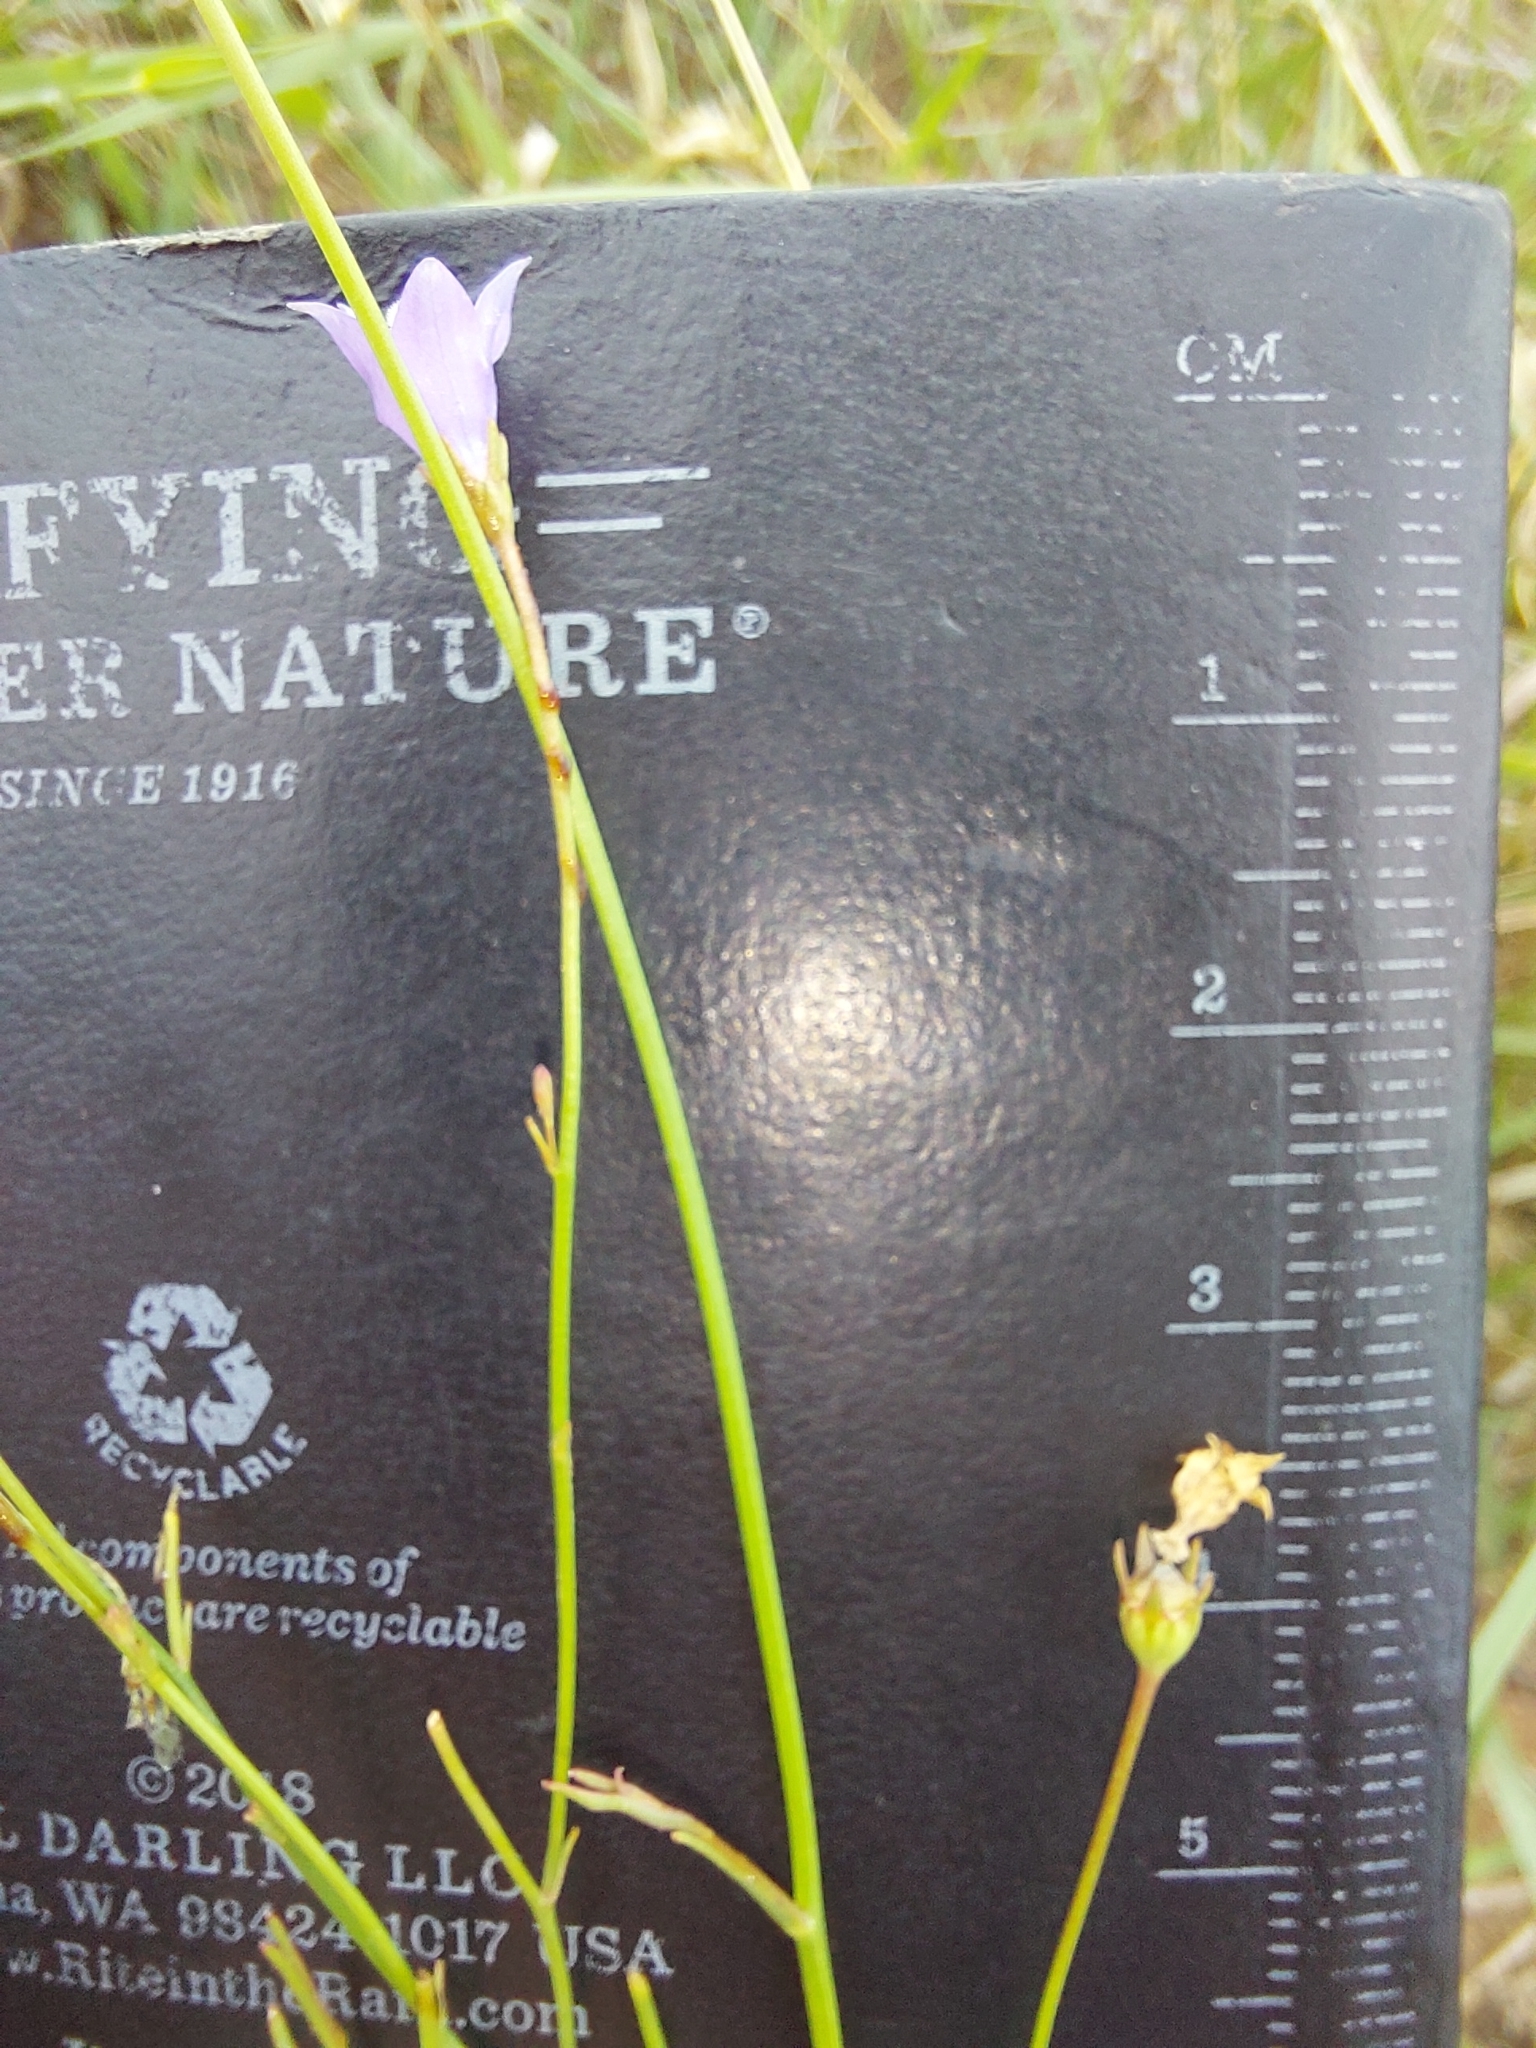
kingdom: Plantae
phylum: Tracheophyta
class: Magnoliopsida
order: Asterales
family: Campanulaceae
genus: Wahlenbergia
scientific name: Wahlenbergia undulata
